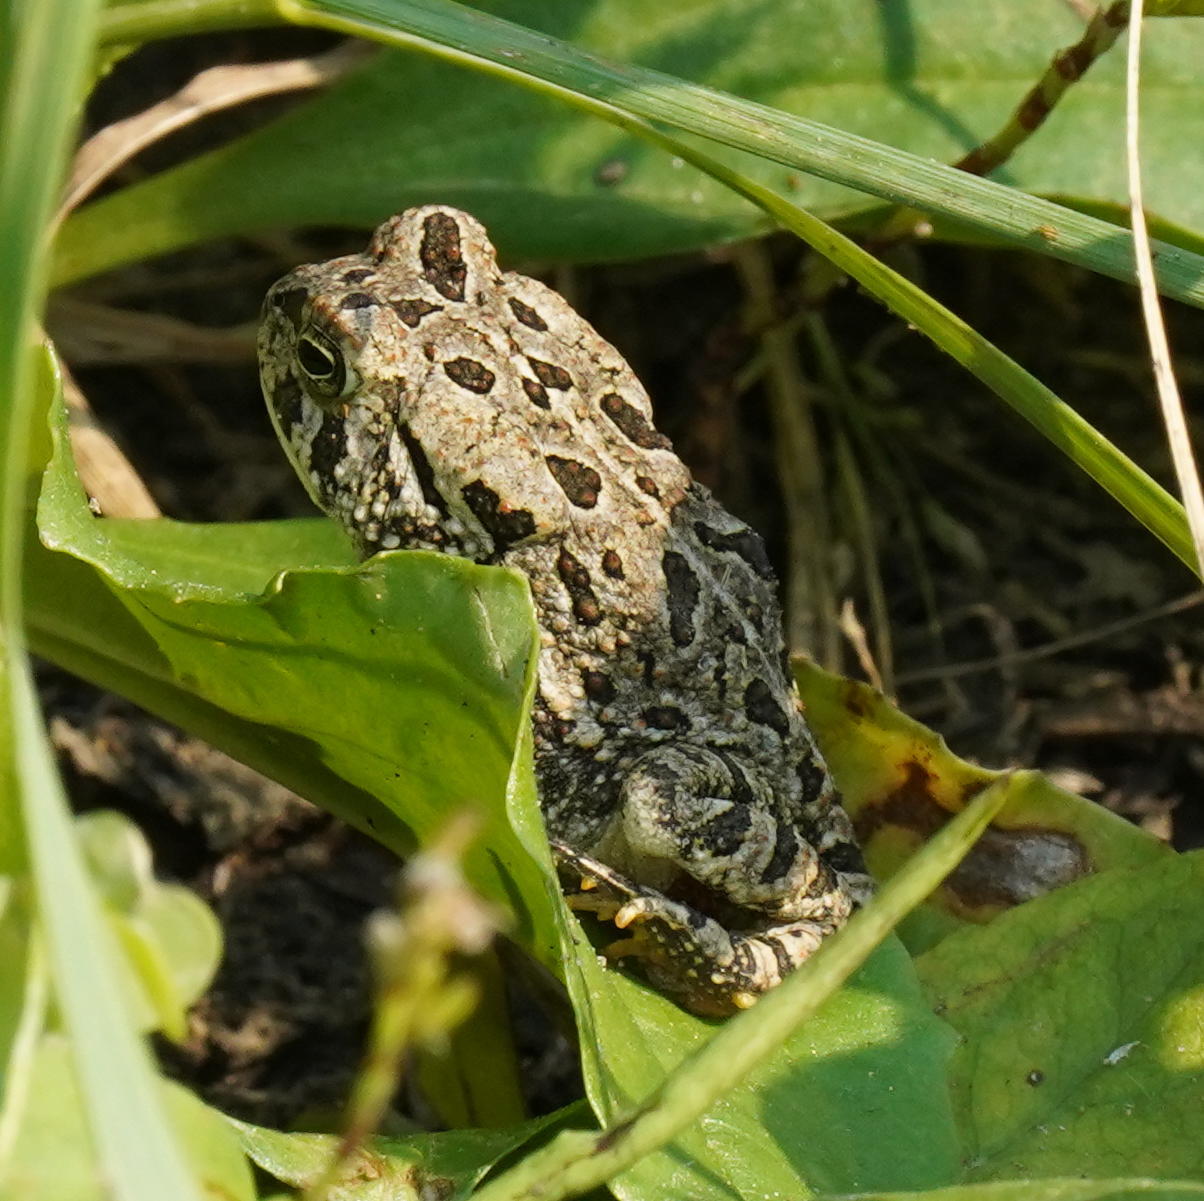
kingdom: Animalia
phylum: Chordata
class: Amphibia
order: Anura
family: Bufonidae
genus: Anaxyrus
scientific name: Anaxyrus fowleri
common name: Fowler's toad
